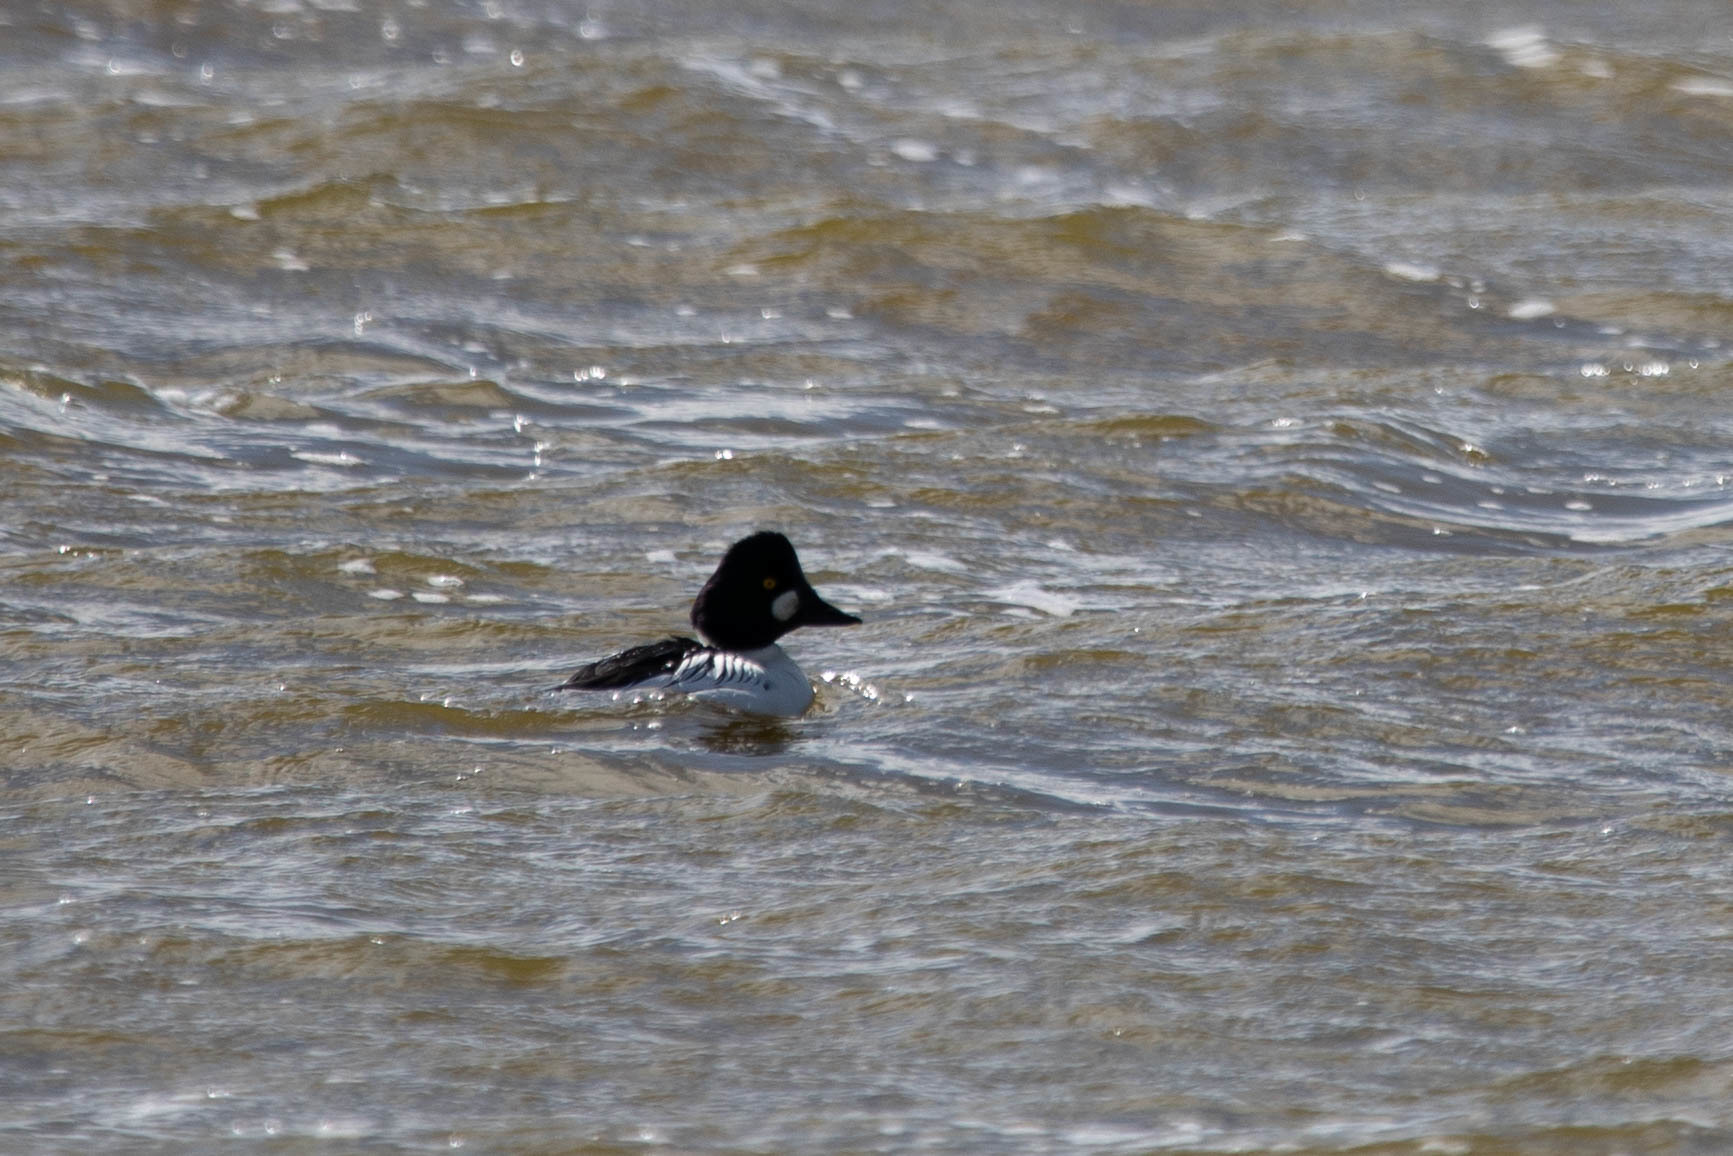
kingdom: Animalia
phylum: Chordata
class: Aves
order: Anseriformes
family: Anatidae
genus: Bucephala
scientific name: Bucephala clangula
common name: Common goldeneye
